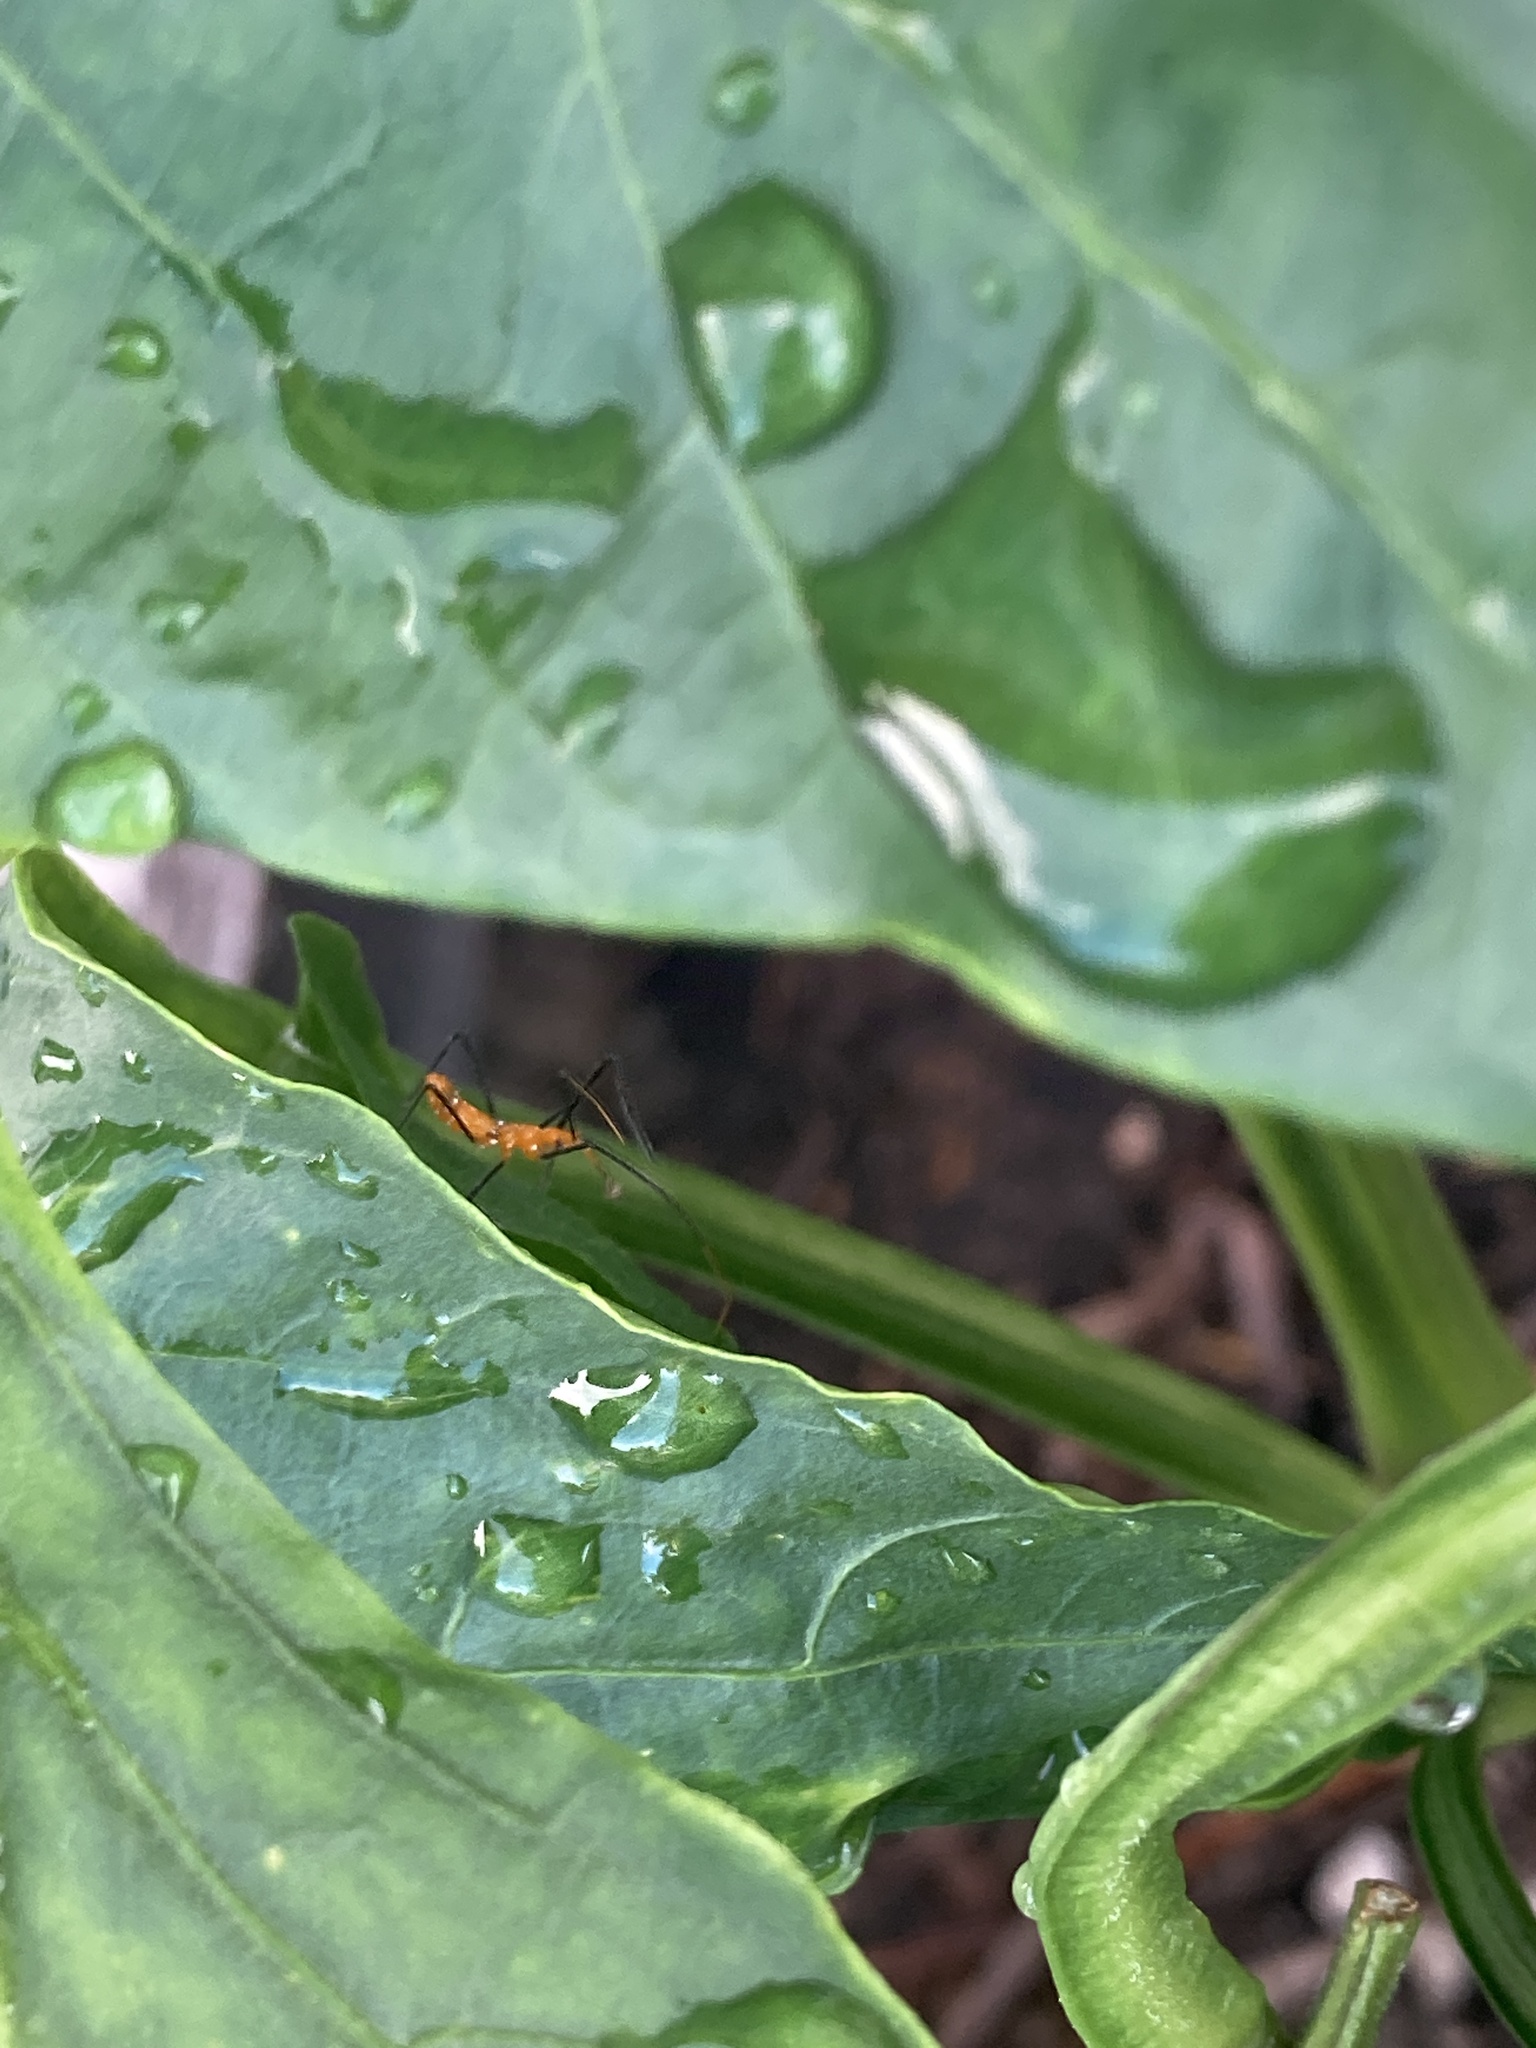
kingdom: Animalia
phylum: Arthropoda
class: Insecta
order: Hemiptera
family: Reduviidae
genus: Zelus
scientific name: Zelus longipes
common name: Milkweed assassin bug
